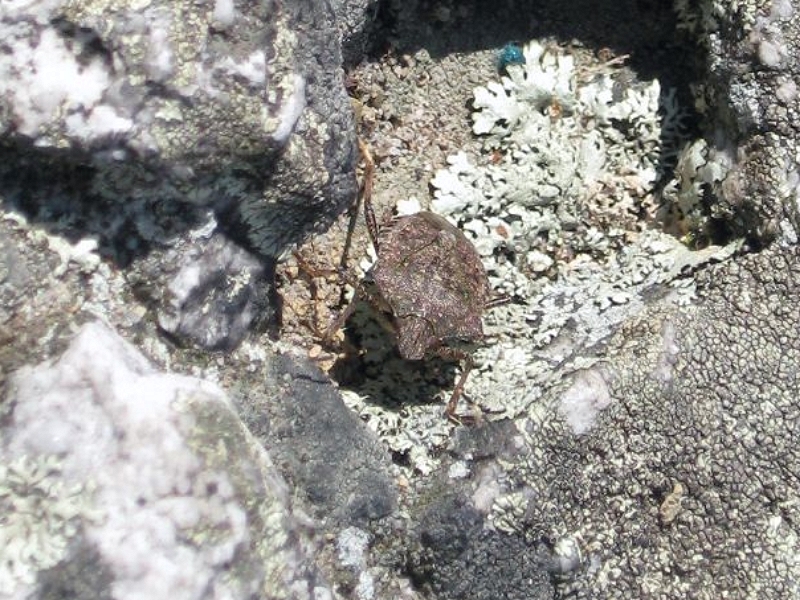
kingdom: Animalia
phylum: Arthropoda
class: Insecta
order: Hemiptera
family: Pentatomidae
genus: Halyomorpha
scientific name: Halyomorpha halys
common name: Brown marmorated stink bug
